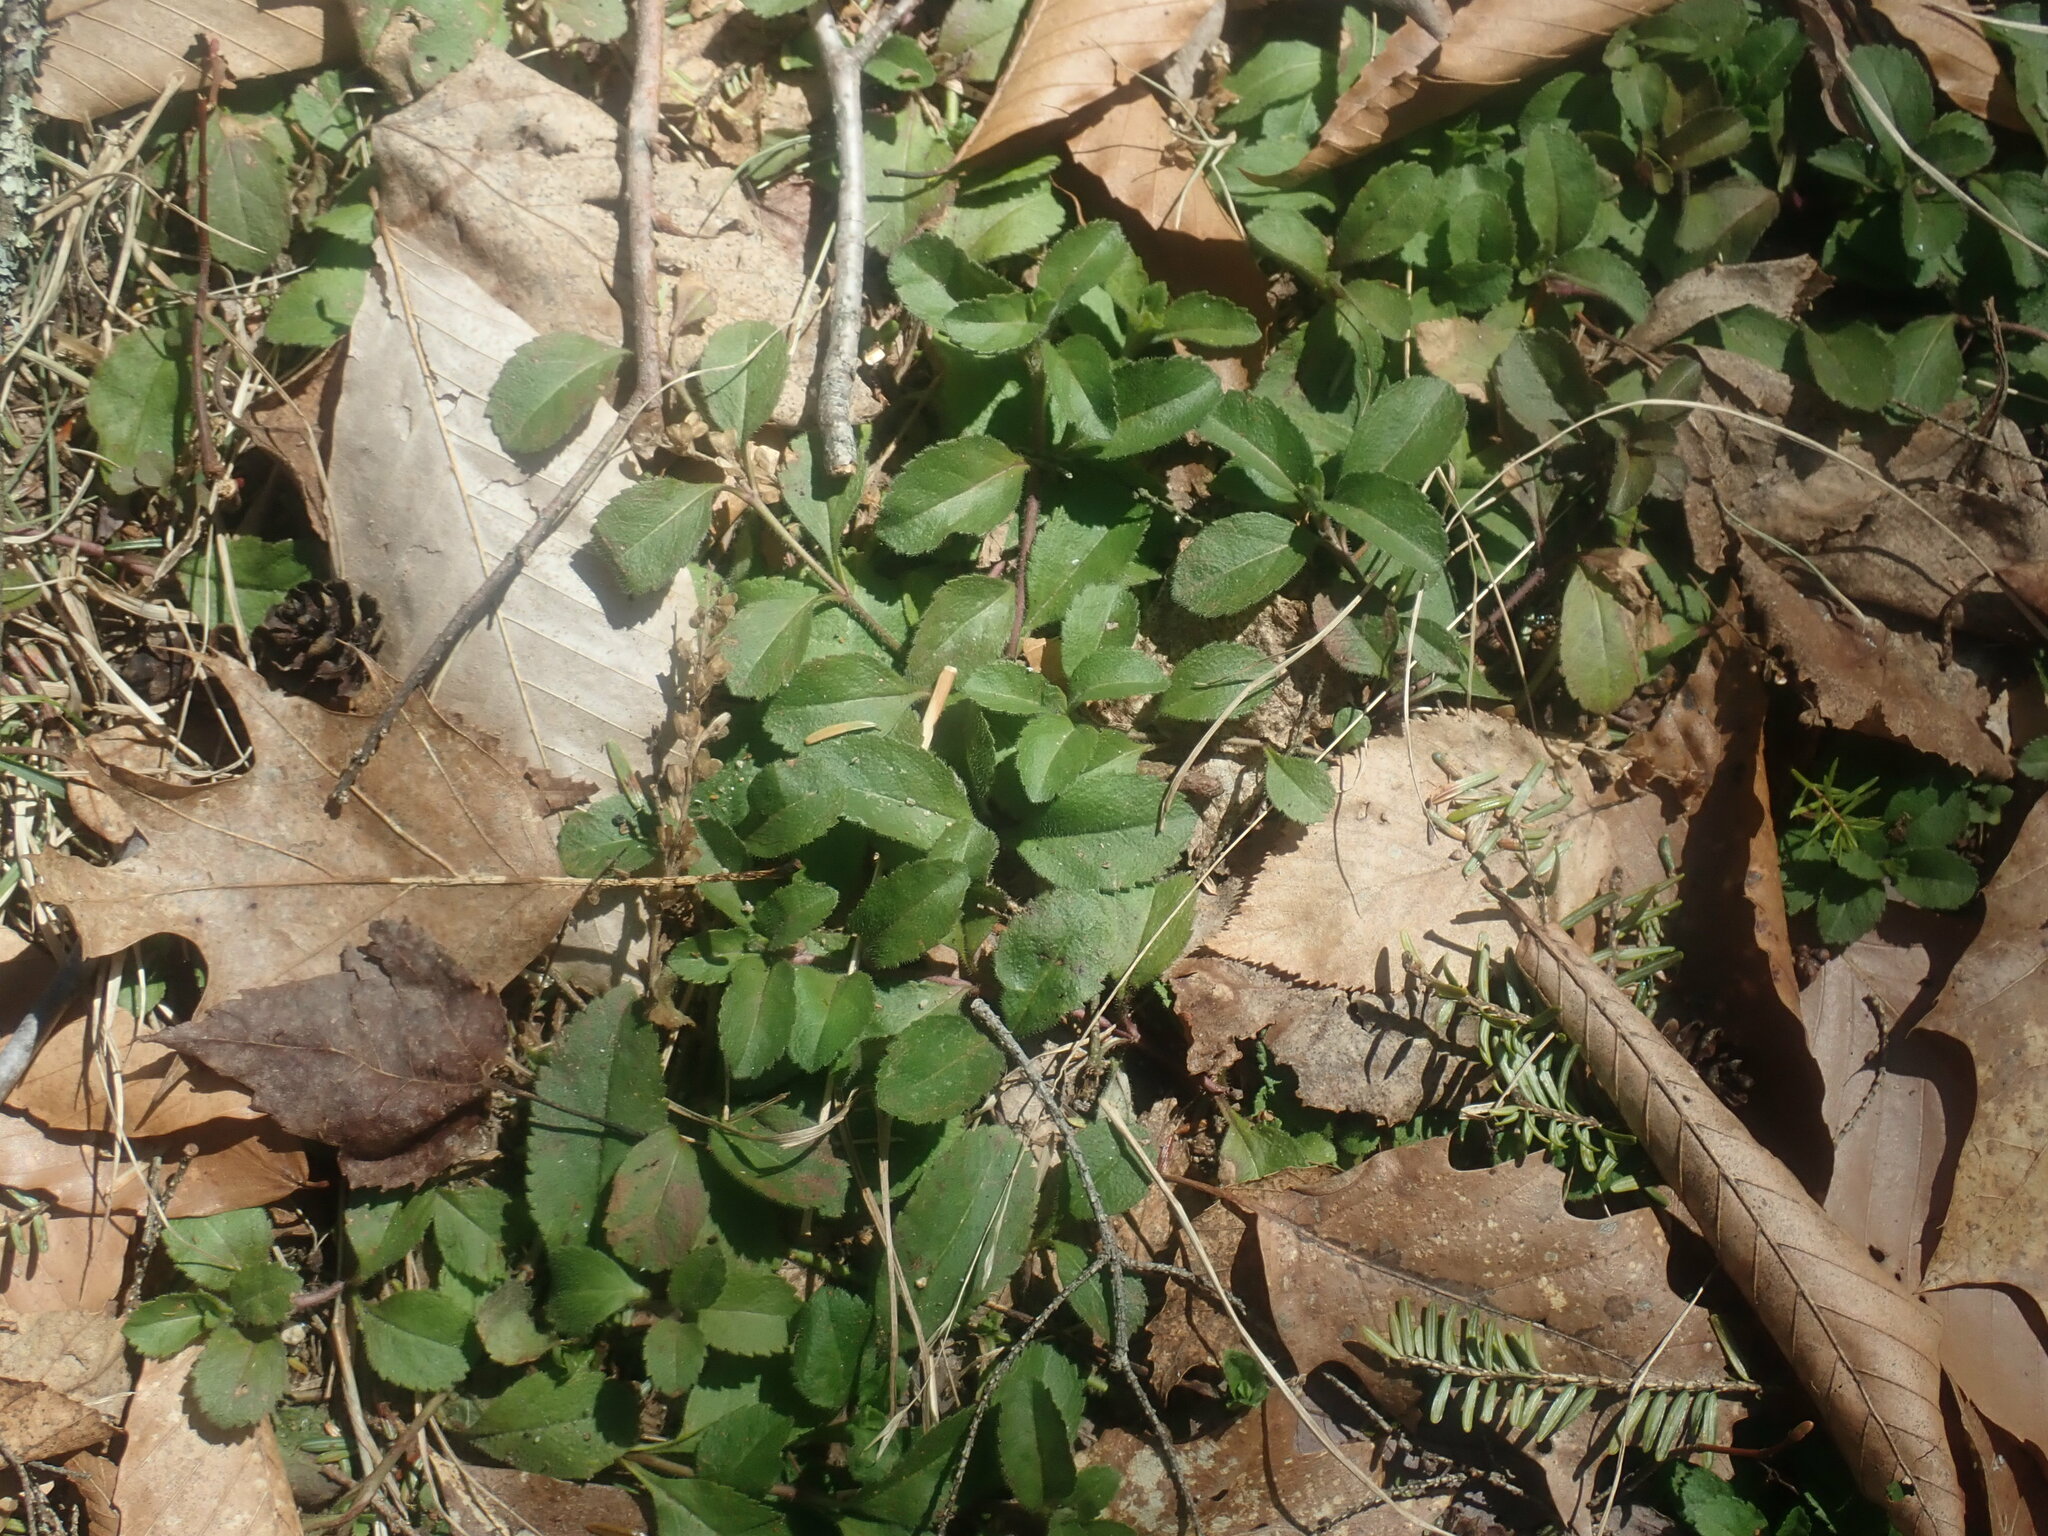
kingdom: Plantae
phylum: Tracheophyta
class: Magnoliopsida
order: Lamiales
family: Plantaginaceae
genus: Veronica
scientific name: Veronica officinalis
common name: Common speedwell
